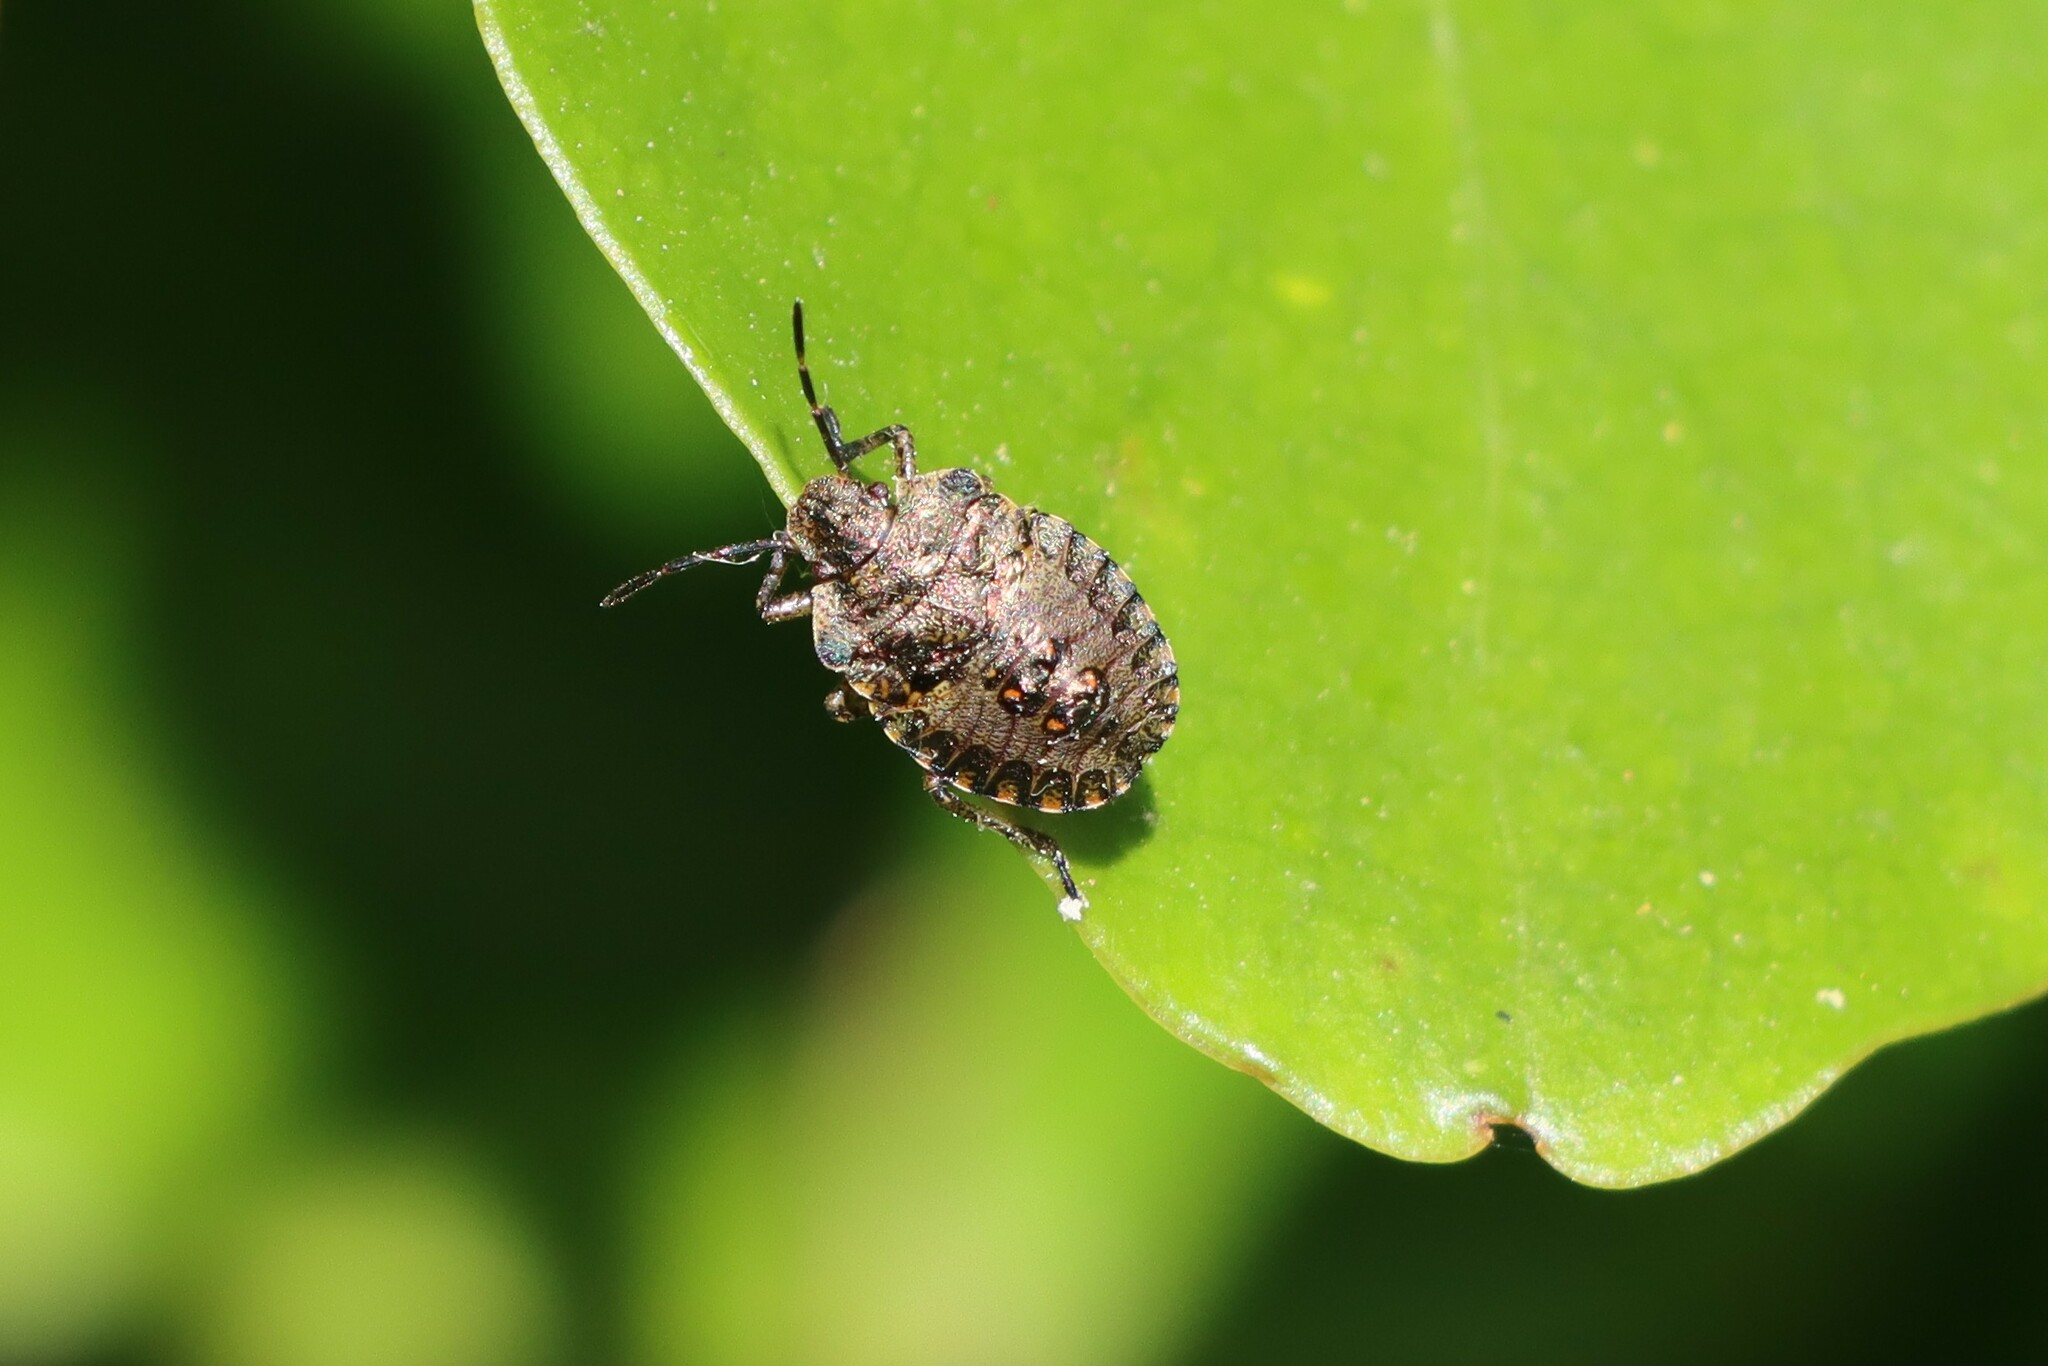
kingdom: Animalia
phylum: Arthropoda
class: Insecta
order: Hemiptera
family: Pentatomidae
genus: Pentatoma
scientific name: Pentatoma rufipes
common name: Forest bug
